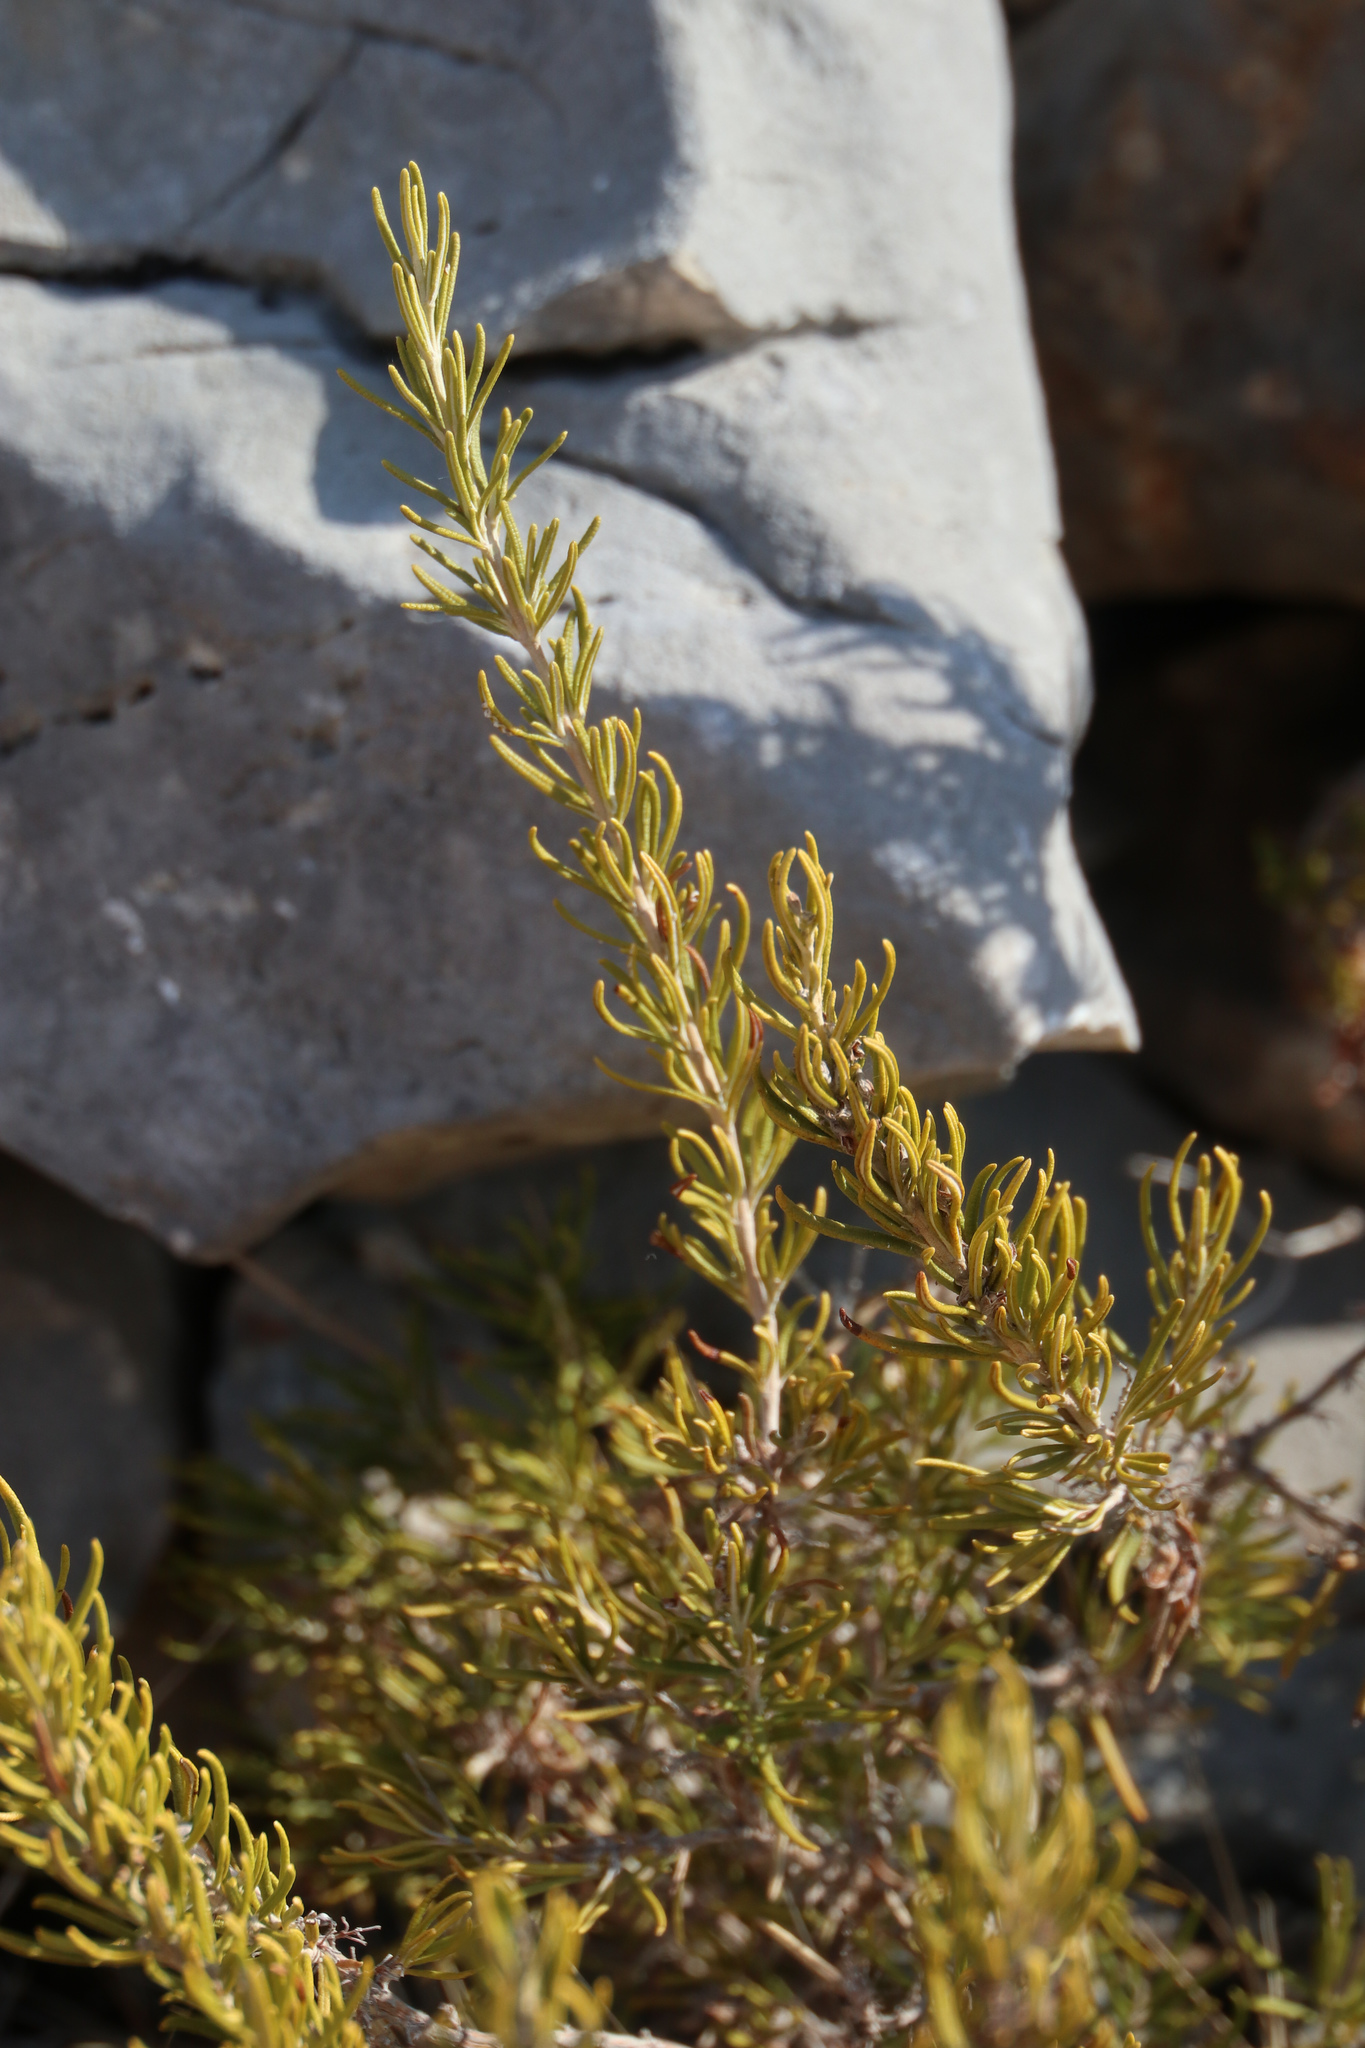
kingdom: Plantae
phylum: Tracheophyta
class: Magnoliopsida
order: Lamiales
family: Lamiaceae
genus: Salvia
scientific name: Salvia rosmarinus
